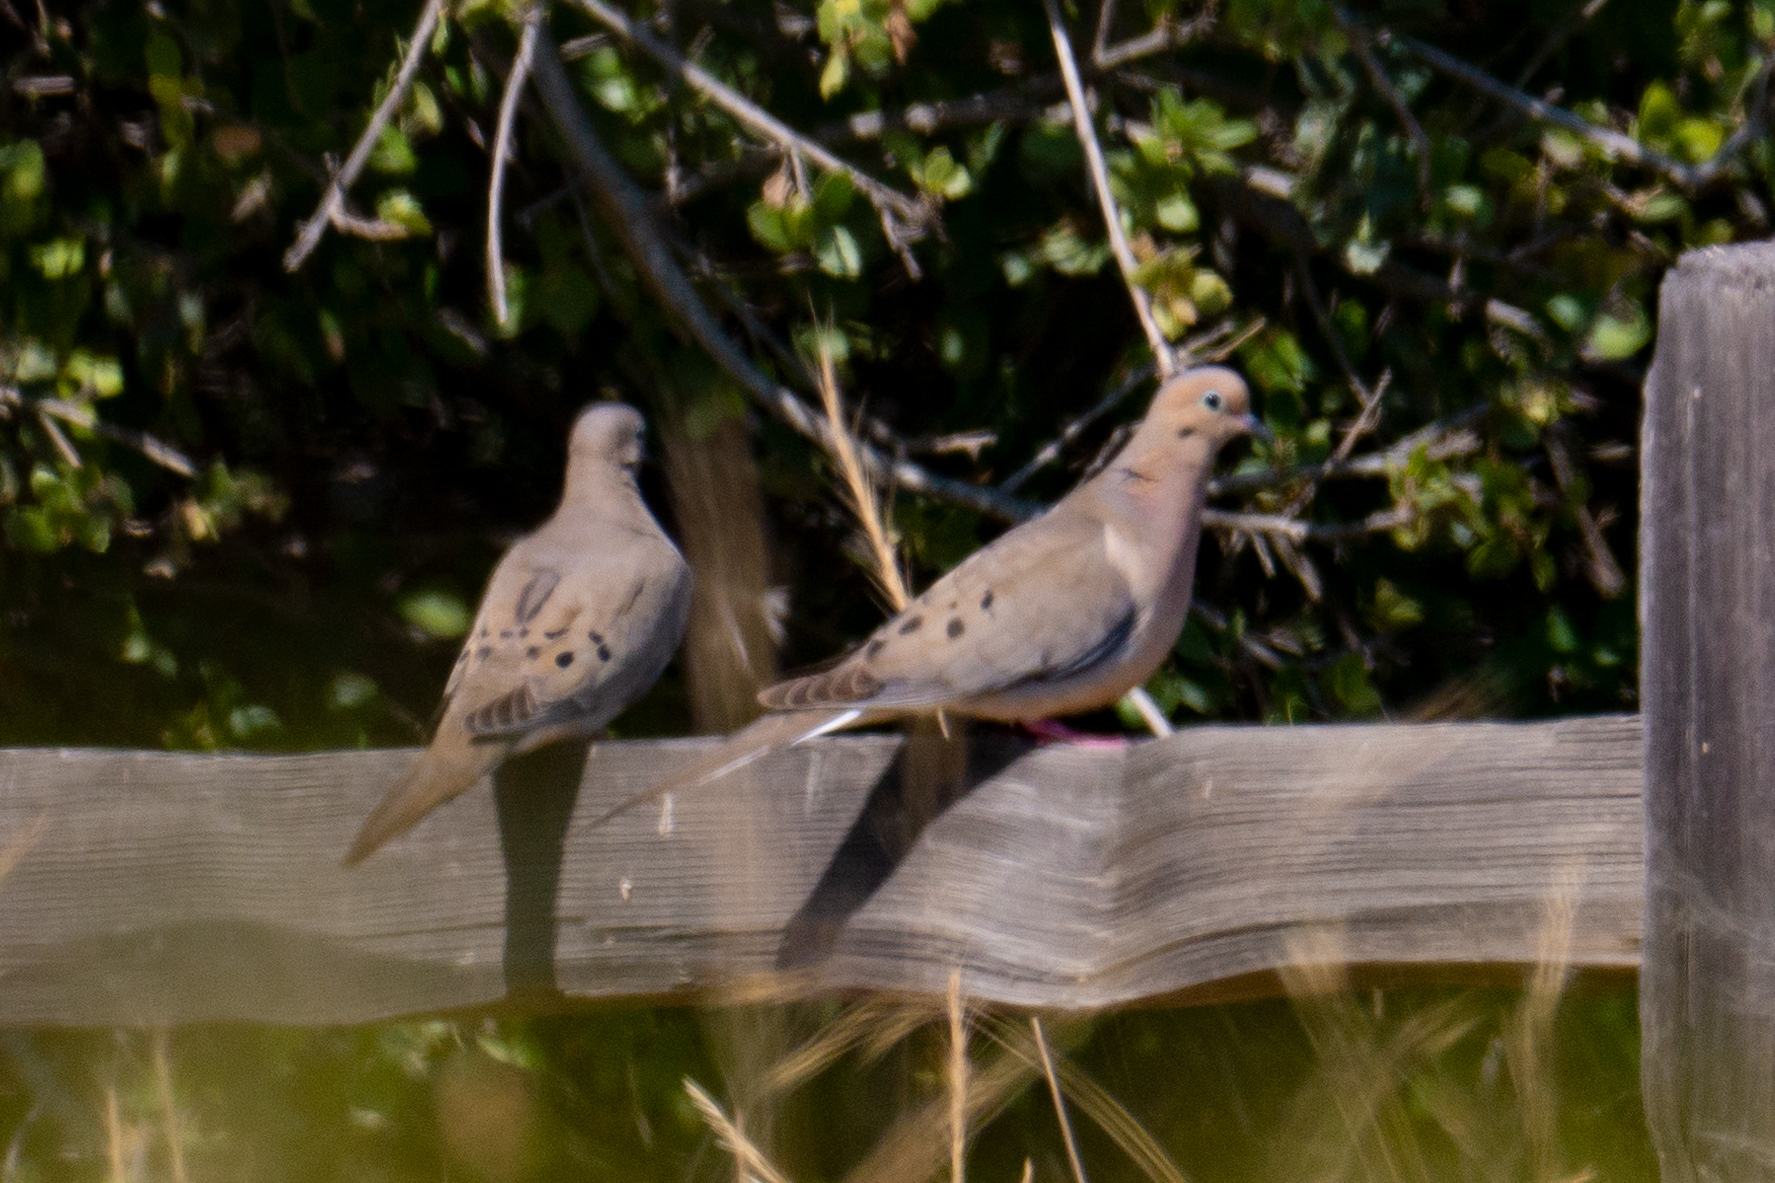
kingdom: Animalia
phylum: Chordata
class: Aves
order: Columbiformes
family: Columbidae
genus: Zenaida
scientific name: Zenaida macroura
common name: Mourning dove
